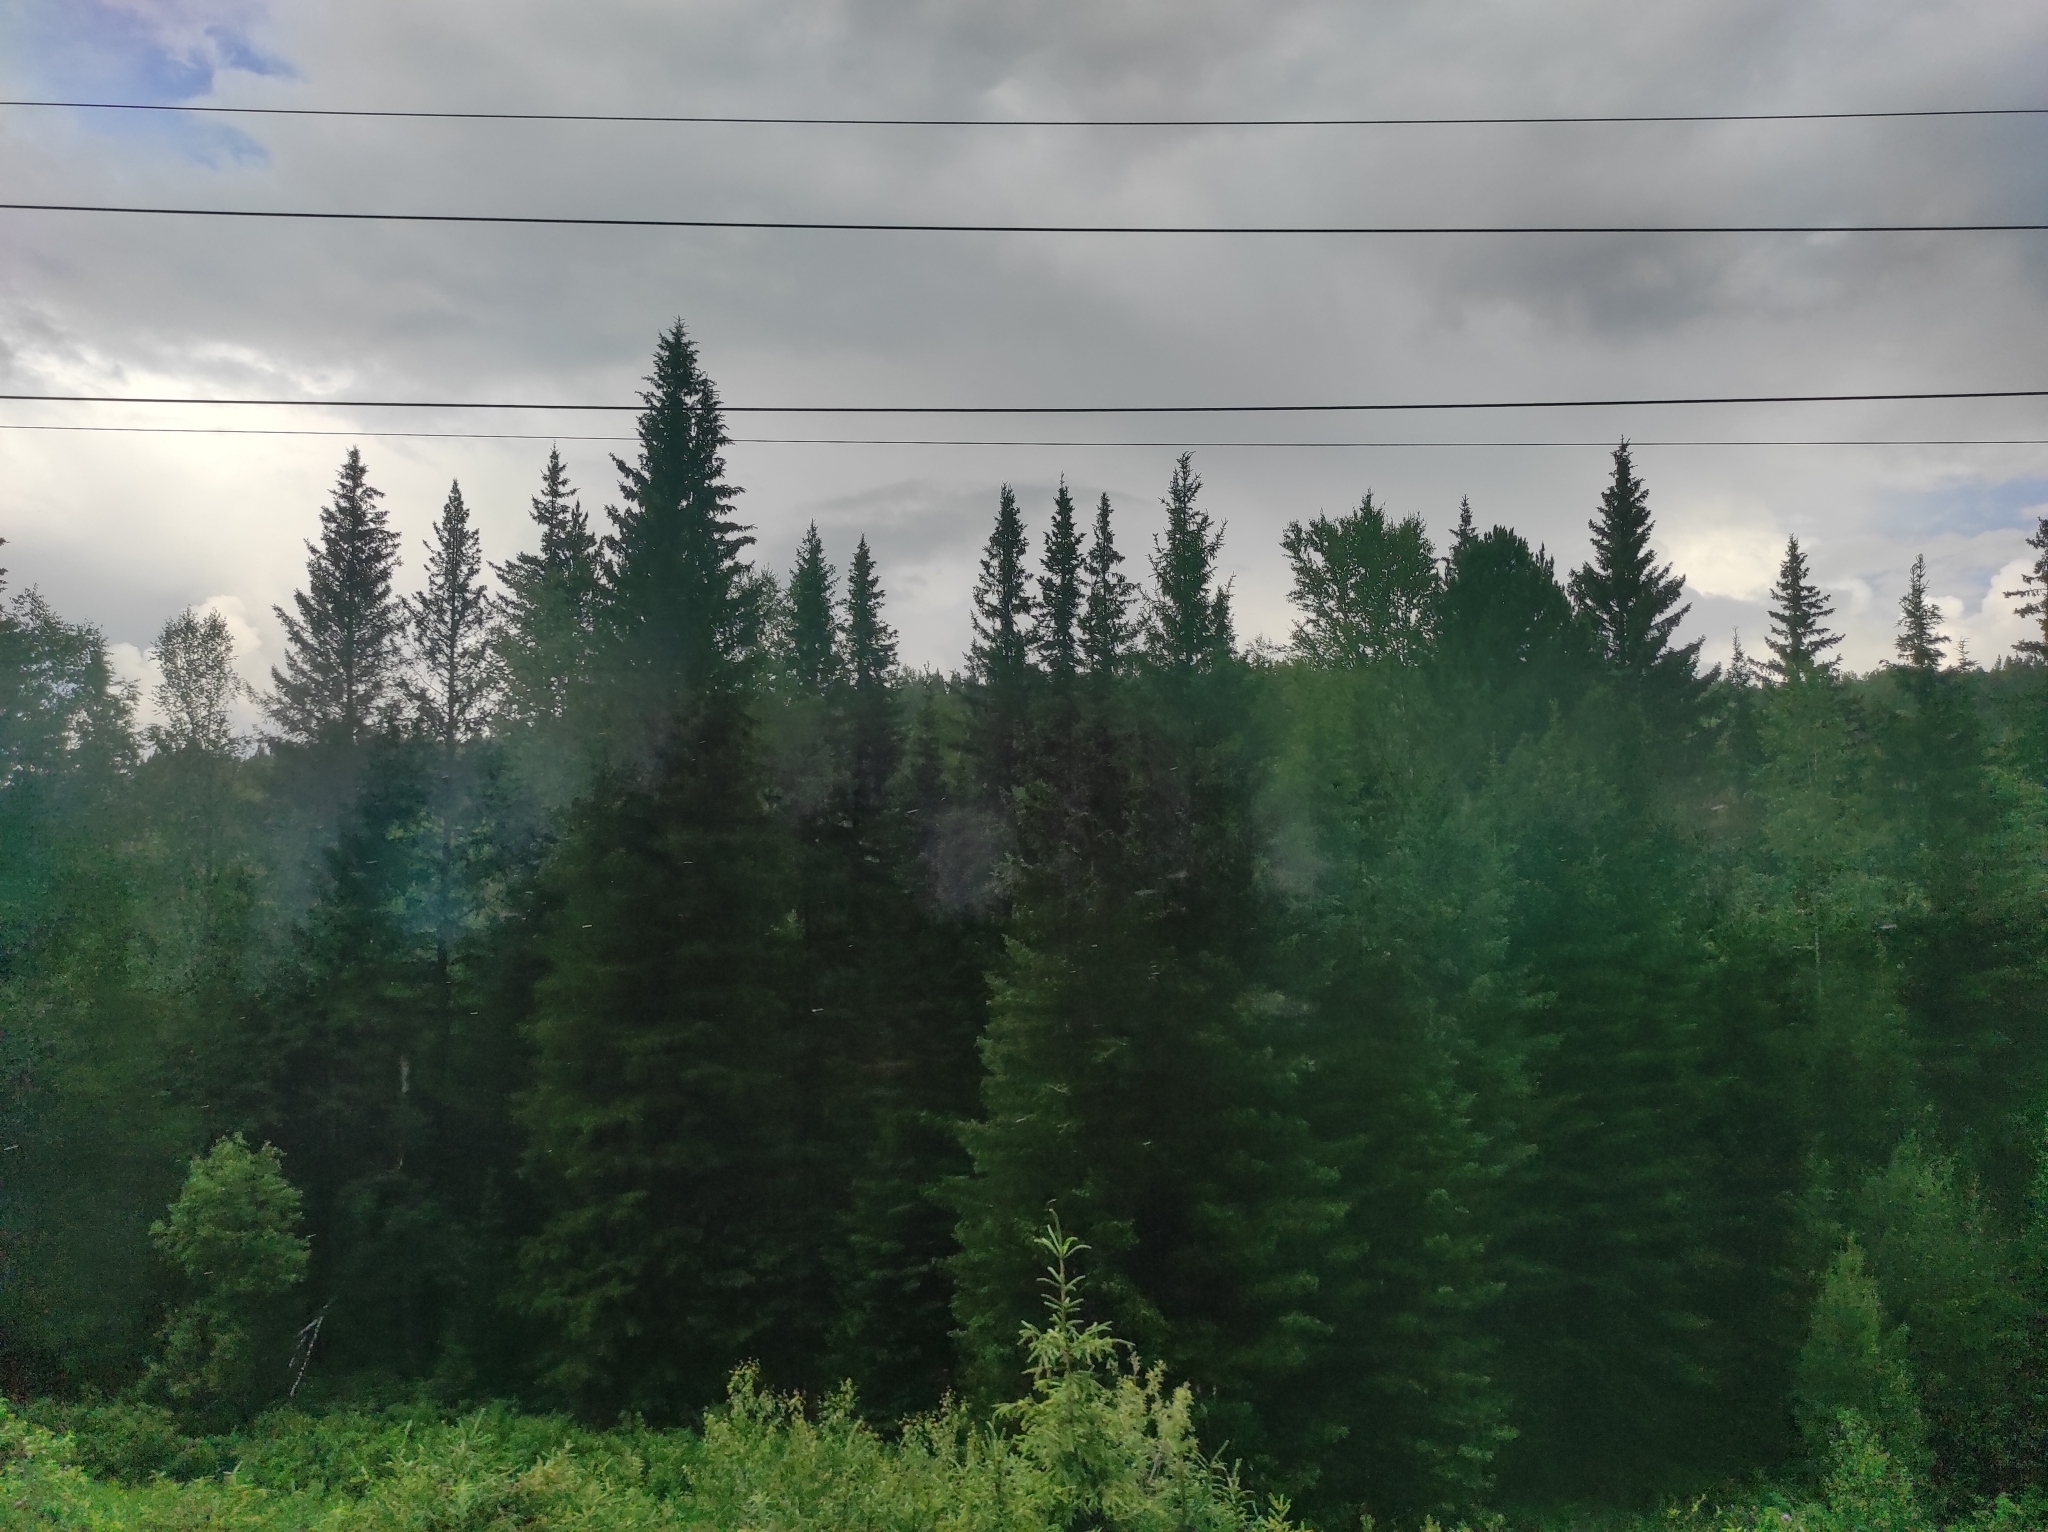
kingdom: Plantae
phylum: Tracheophyta
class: Pinopsida
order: Pinales
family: Pinaceae
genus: Picea
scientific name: Picea obovata
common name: Siberian spruce
